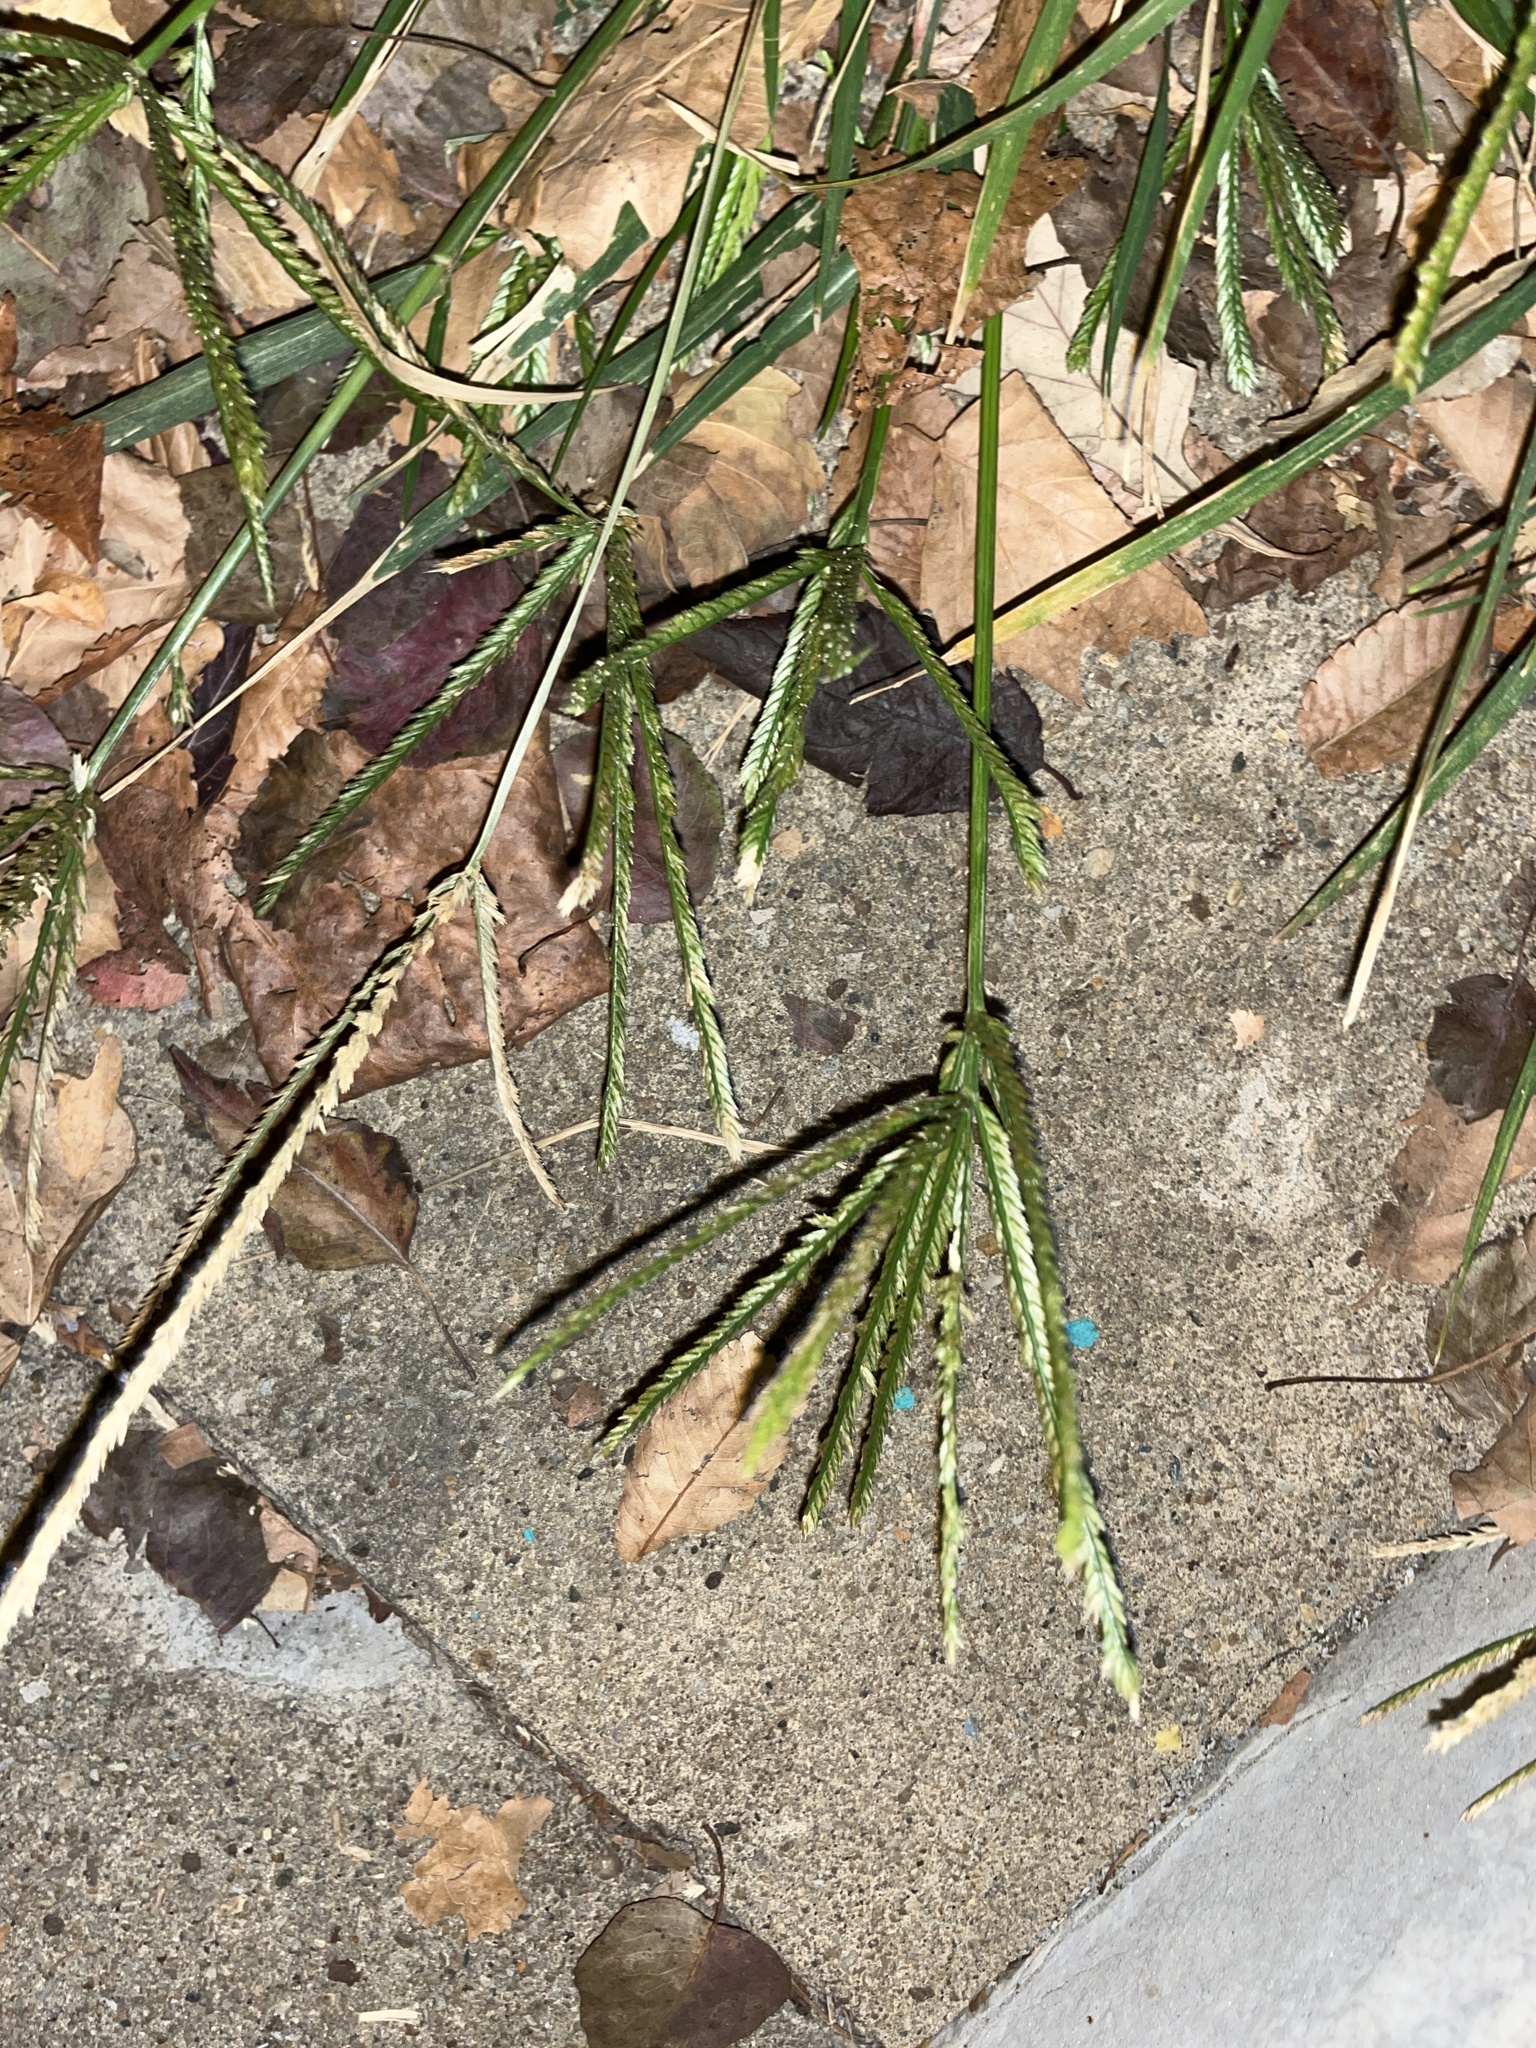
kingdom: Plantae
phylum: Tracheophyta
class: Liliopsida
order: Poales
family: Poaceae
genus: Eleusine
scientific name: Eleusine indica
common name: Yard-grass
